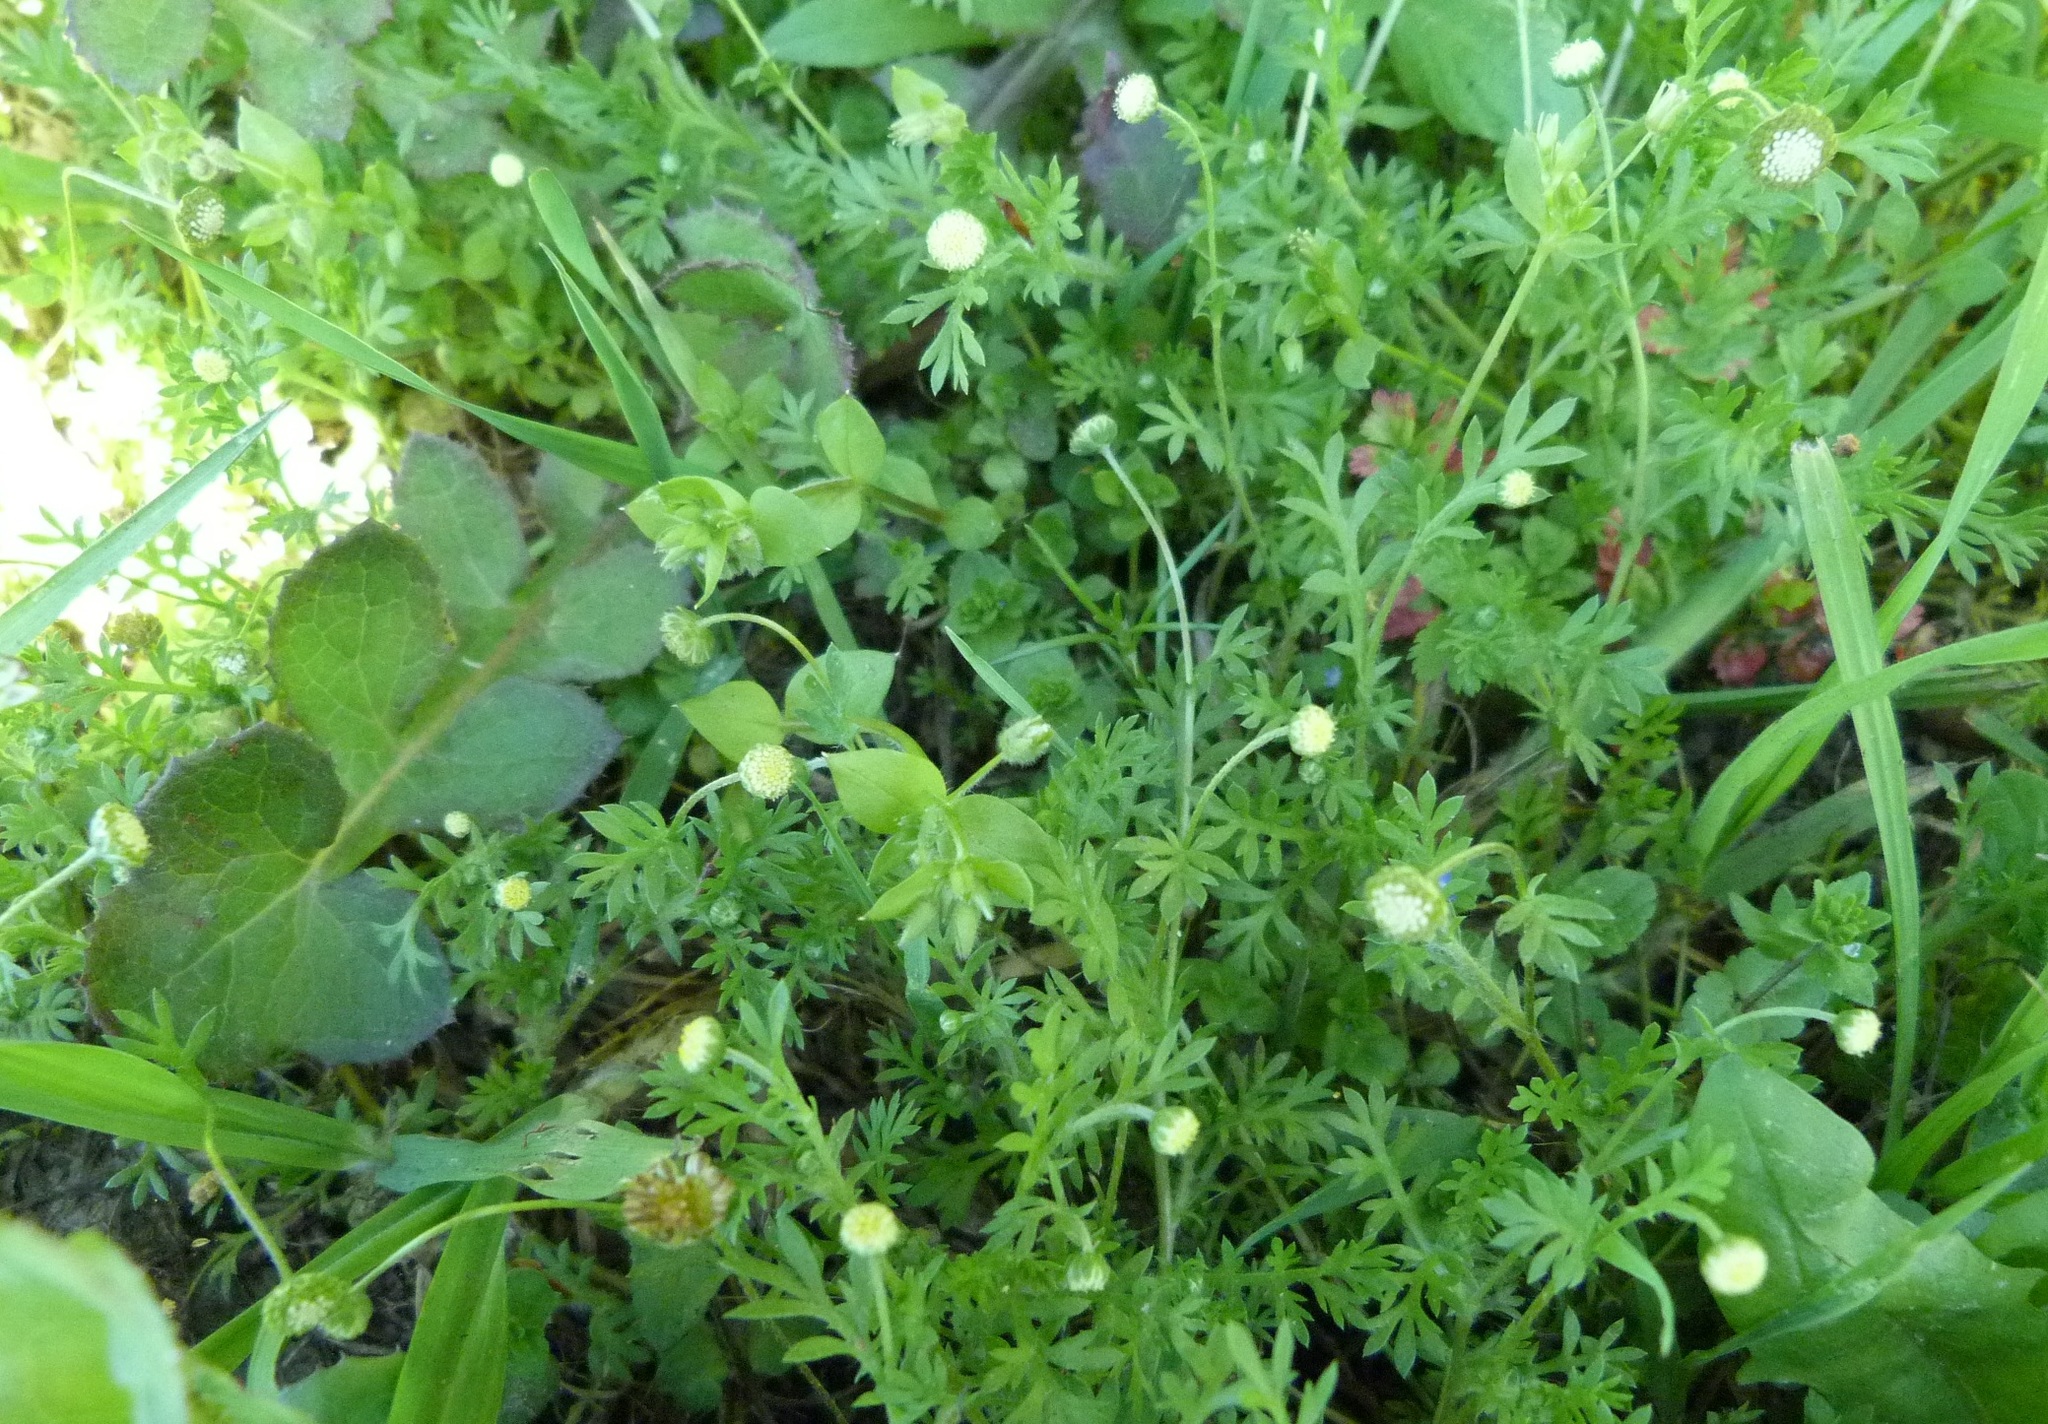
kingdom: Plantae
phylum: Tracheophyta
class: Magnoliopsida
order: Asterales
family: Asteraceae
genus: Cotula
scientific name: Cotula australis
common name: Australian waterbuttons
